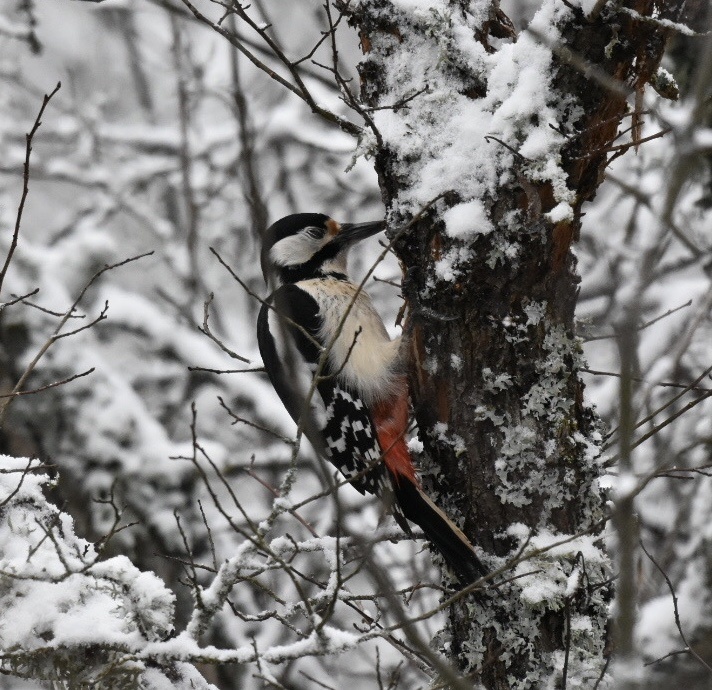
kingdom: Animalia
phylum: Chordata
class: Aves
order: Piciformes
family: Picidae
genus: Dendrocopos
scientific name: Dendrocopos major
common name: Great spotted woodpecker
